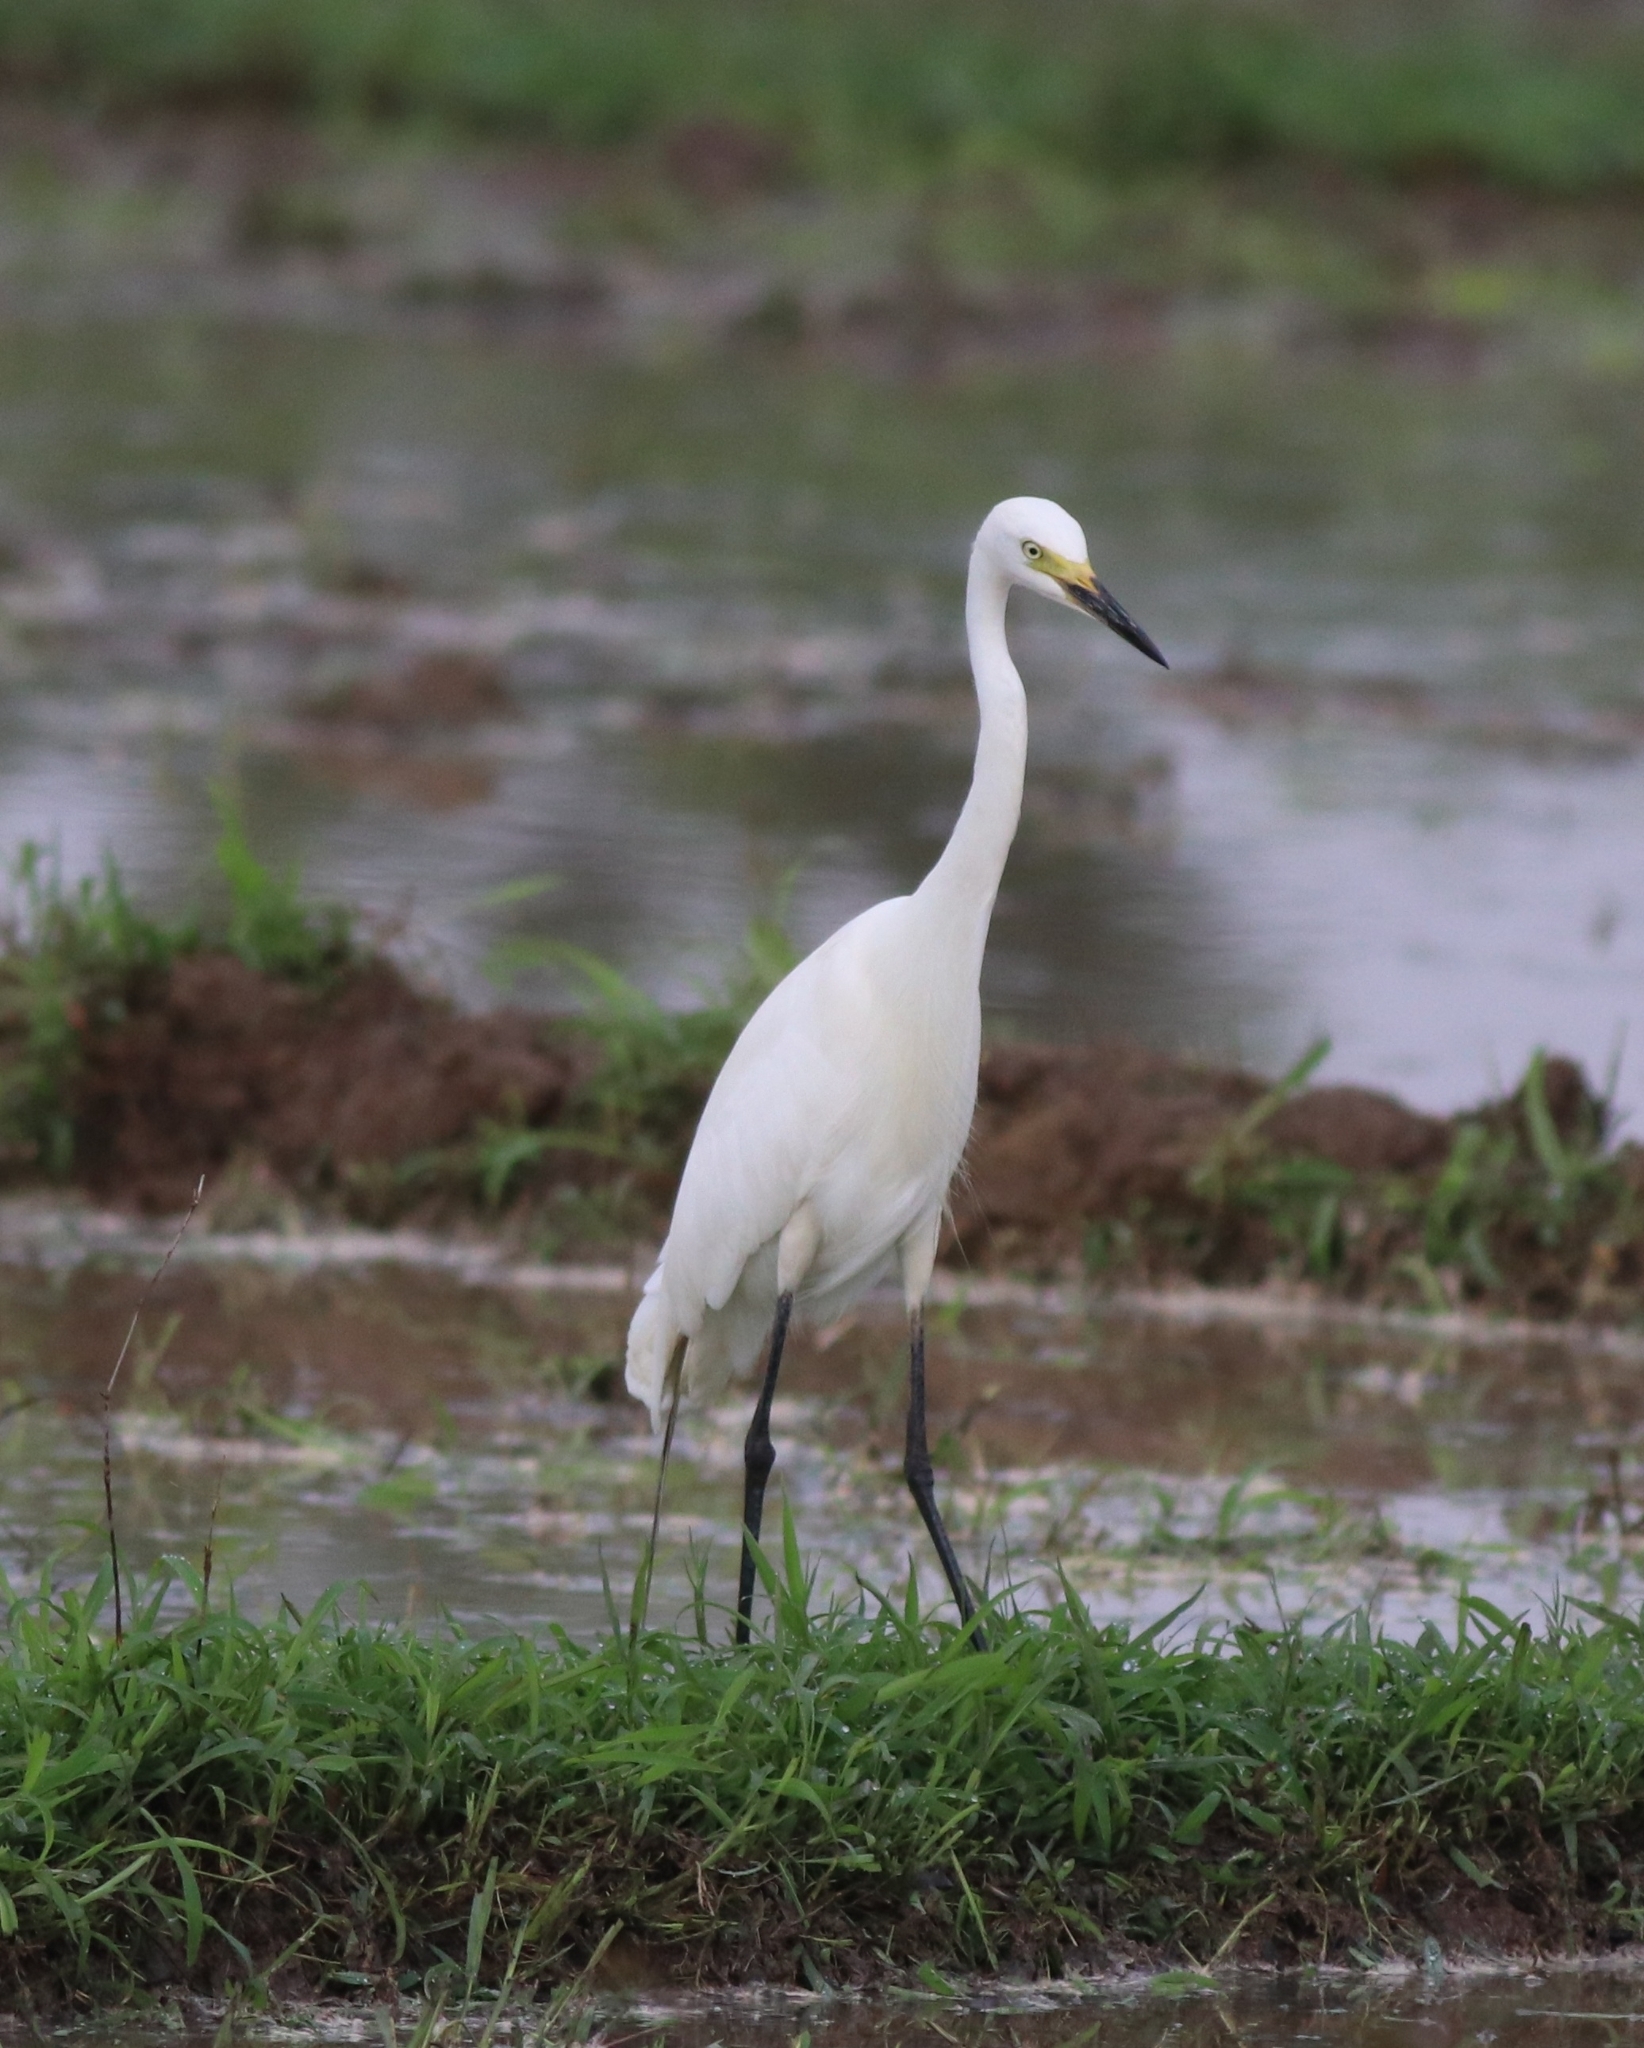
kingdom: Animalia
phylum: Chordata
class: Aves
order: Pelecaniformes
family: Ardeidae
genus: Egretta
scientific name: Egretta intermedia
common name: Intermediate egret
